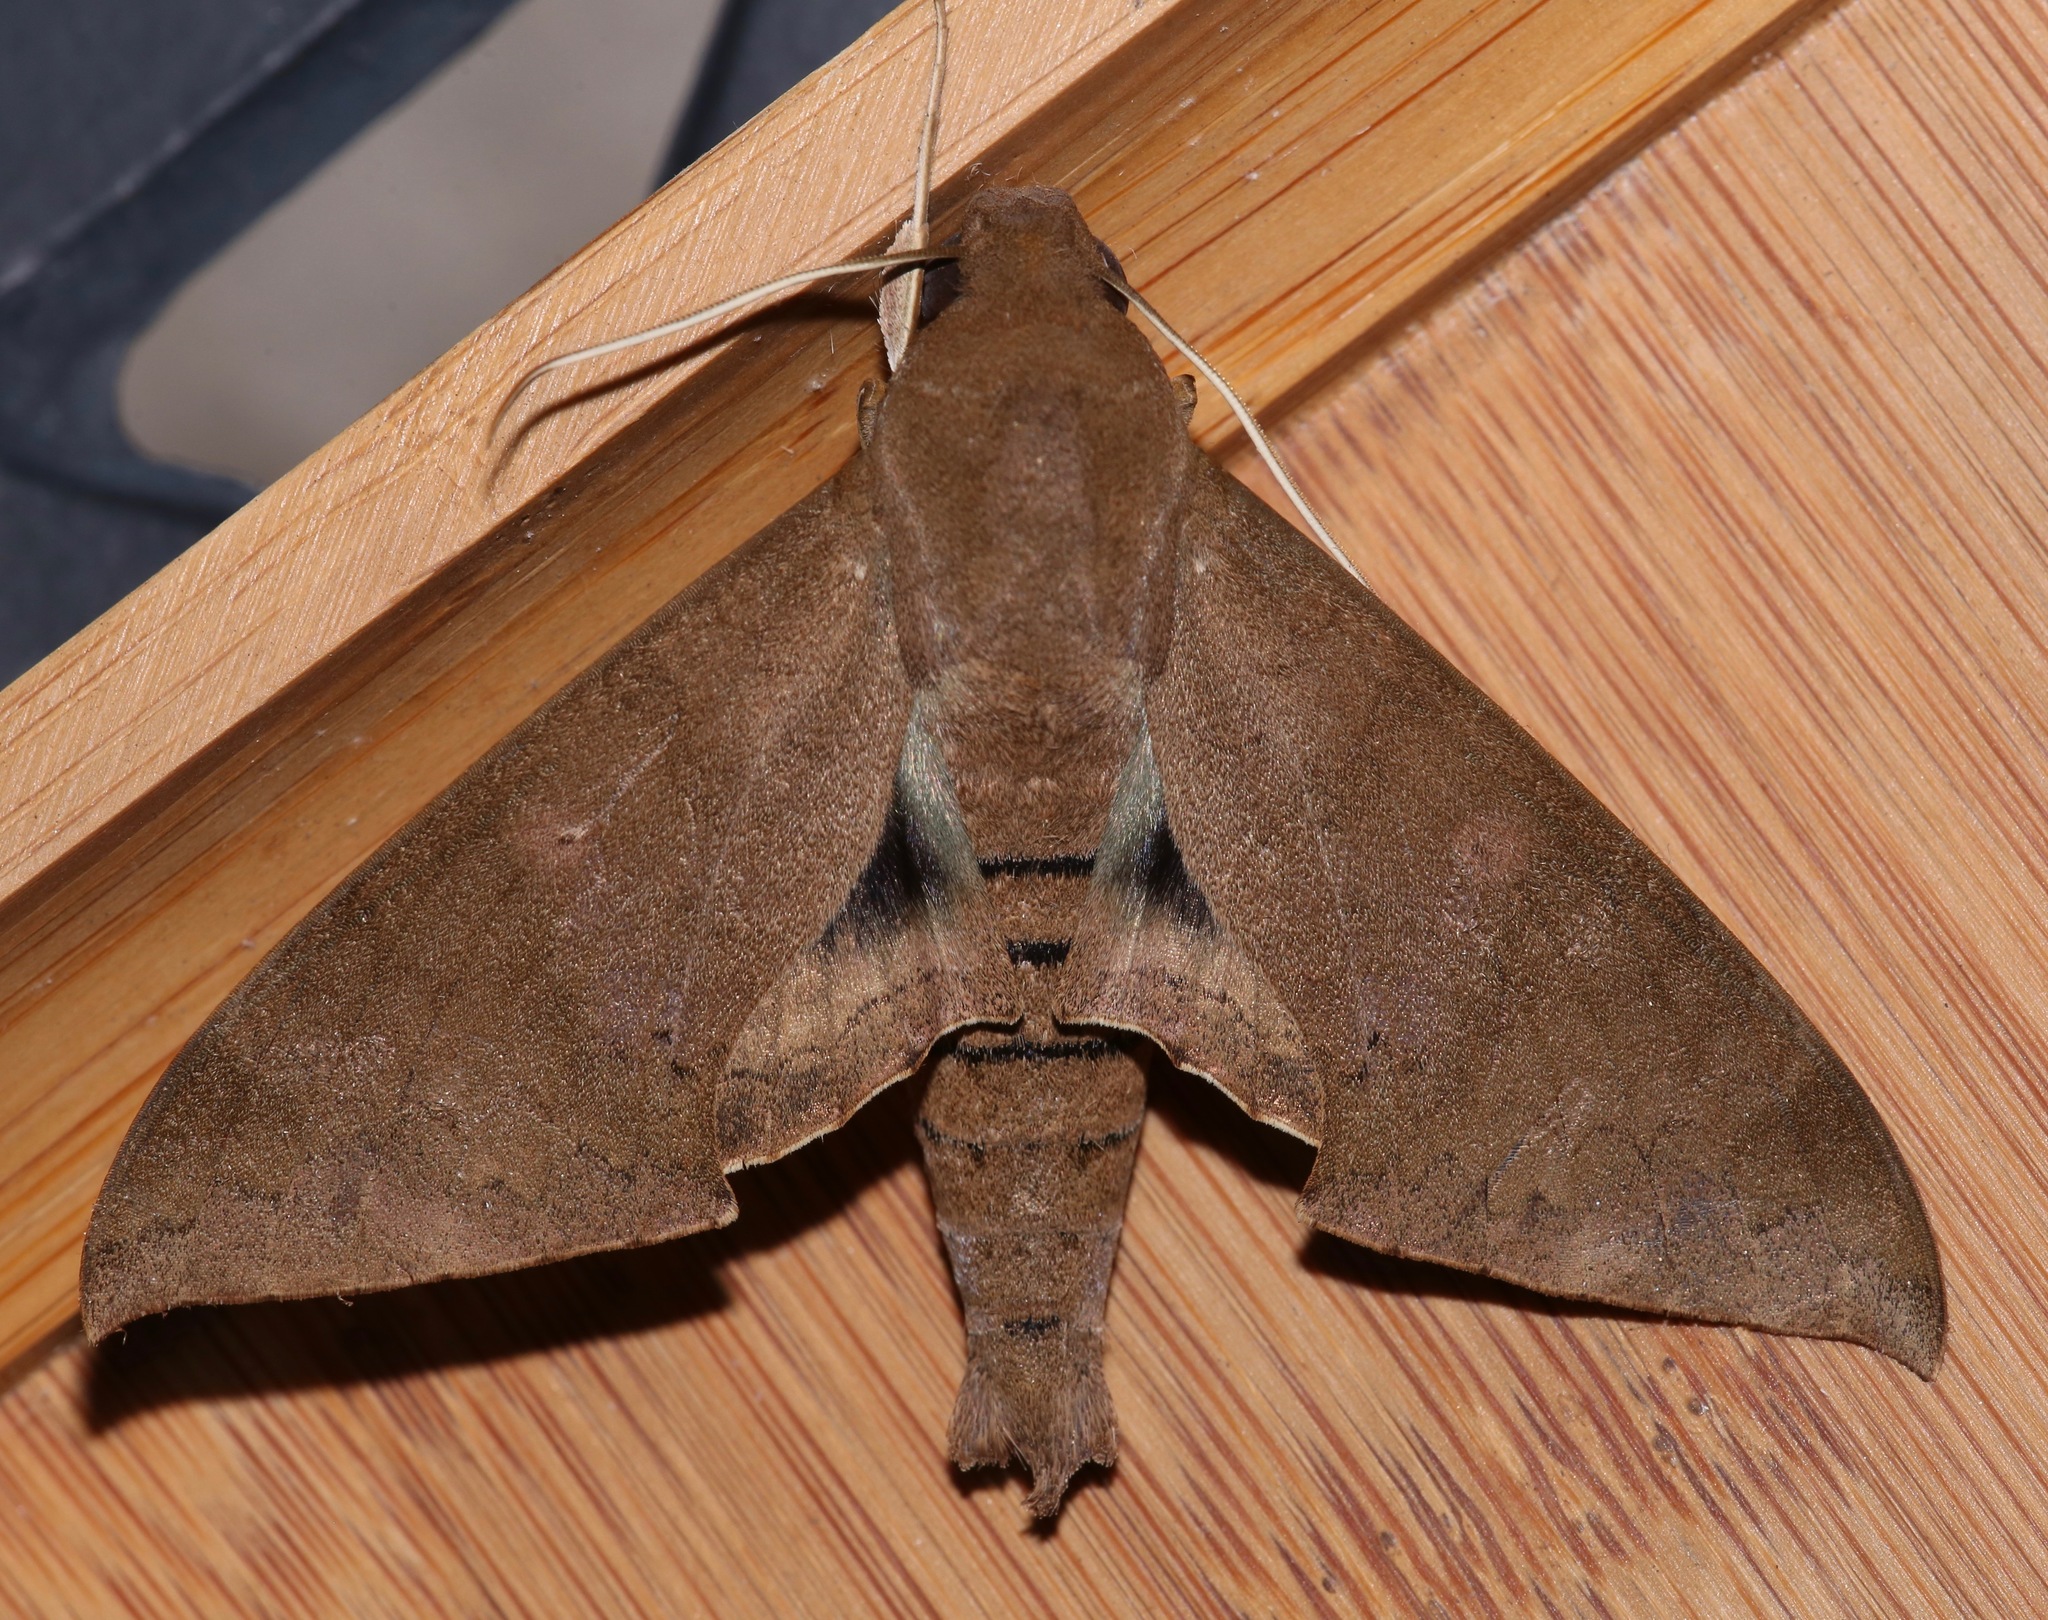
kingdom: Animalia
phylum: Arthropoda
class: Insecta
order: Lepidoptera
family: Sphingidae
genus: Pachylioides
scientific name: Pachylioides resumens
